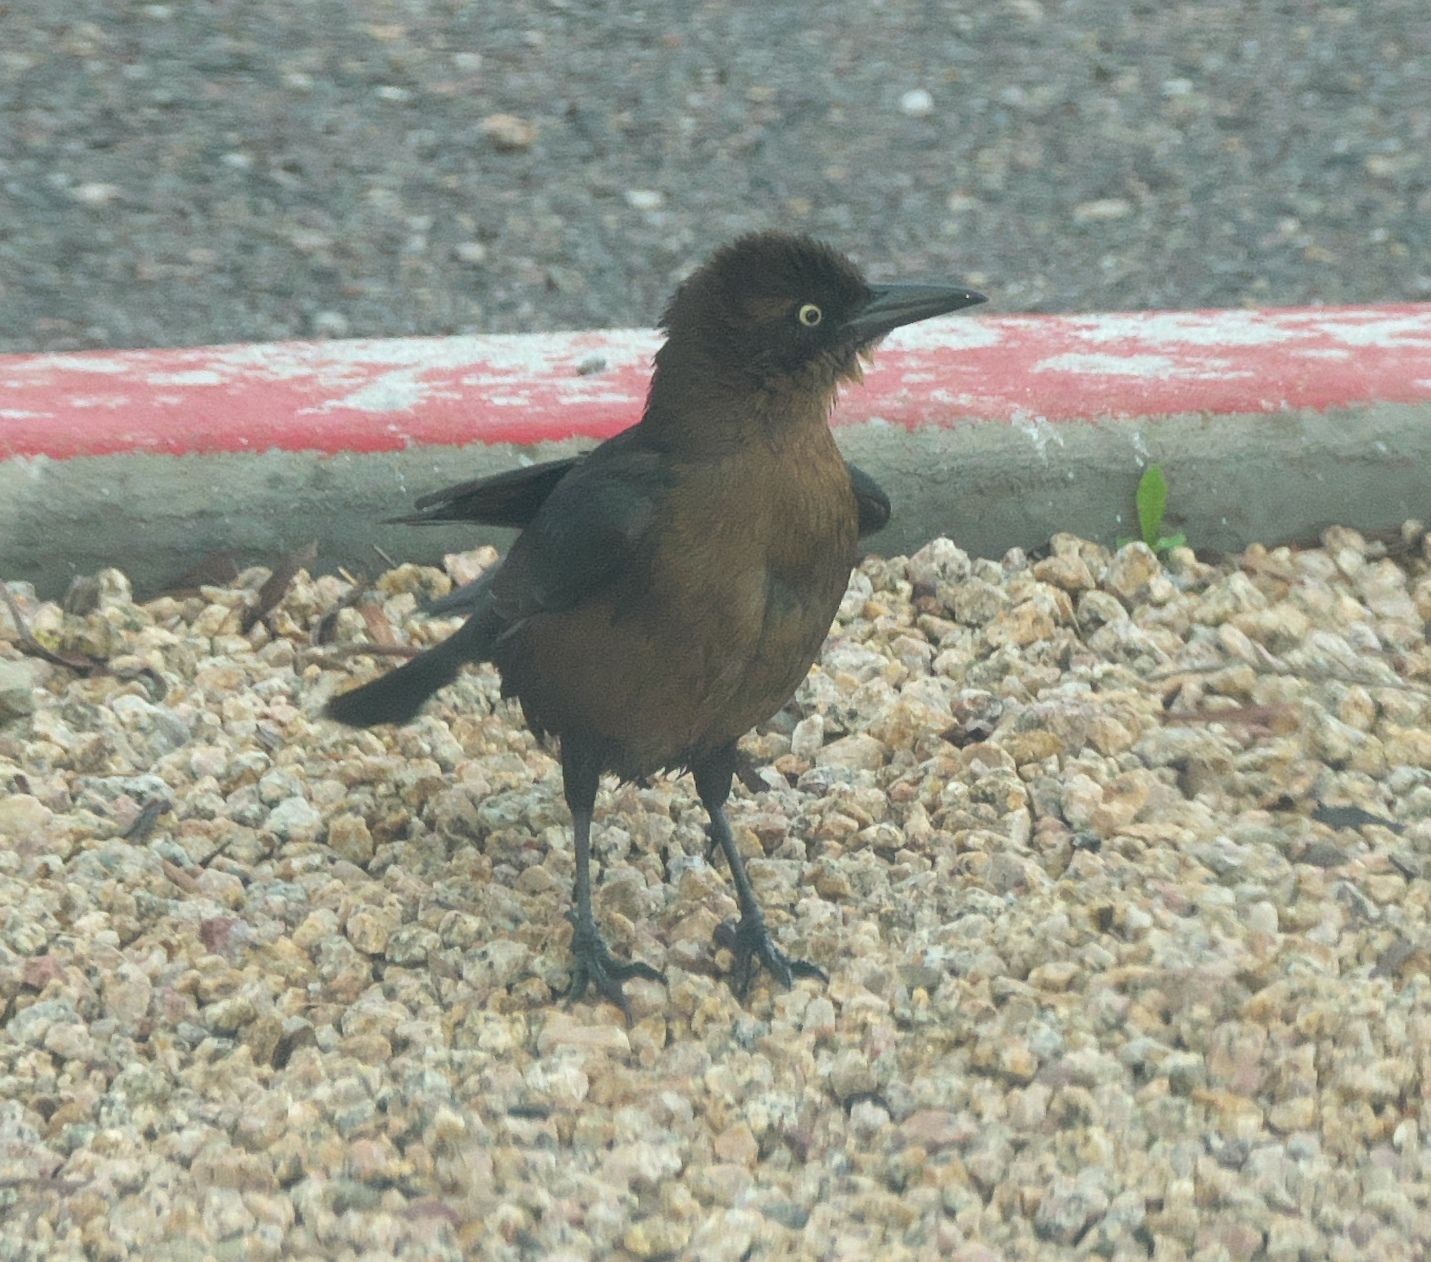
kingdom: Animalia
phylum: Chordata
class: Aves
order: Passeriformes
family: Icteridae
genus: Quiscalus
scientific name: Quiscalus mexicanus
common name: Great-tailed grackle
